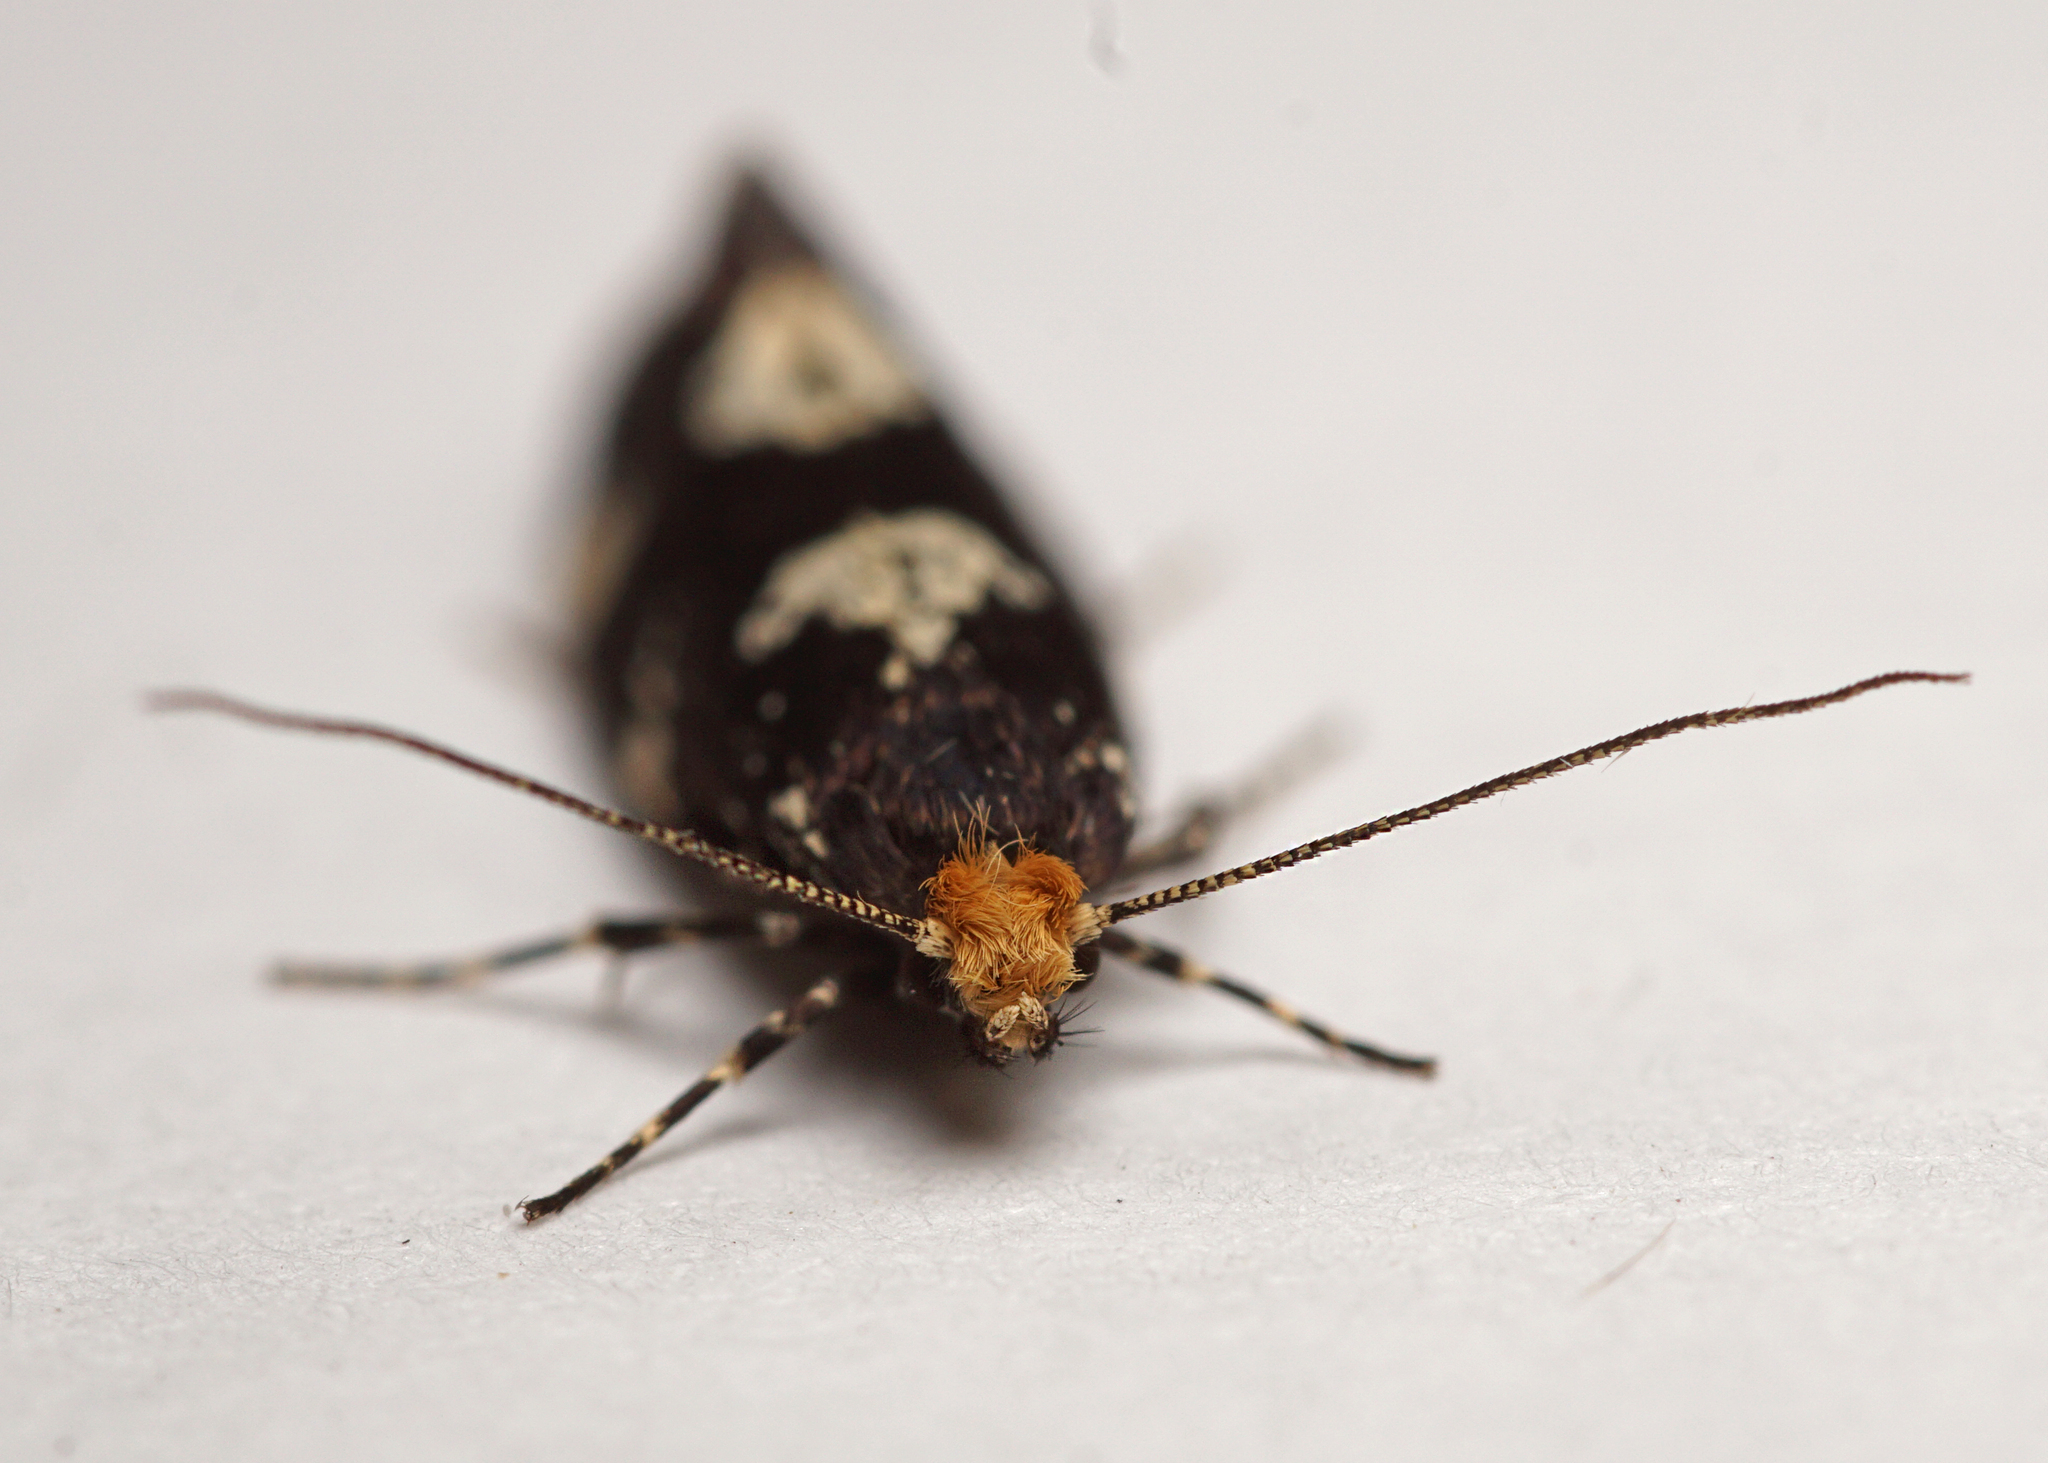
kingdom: Animalia
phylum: Arthropoda
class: Insecta
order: Lepidoptera
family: Tineidae
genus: Triaxomera
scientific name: Triaxomera fulvimitrella
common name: Four-spotted clothes
